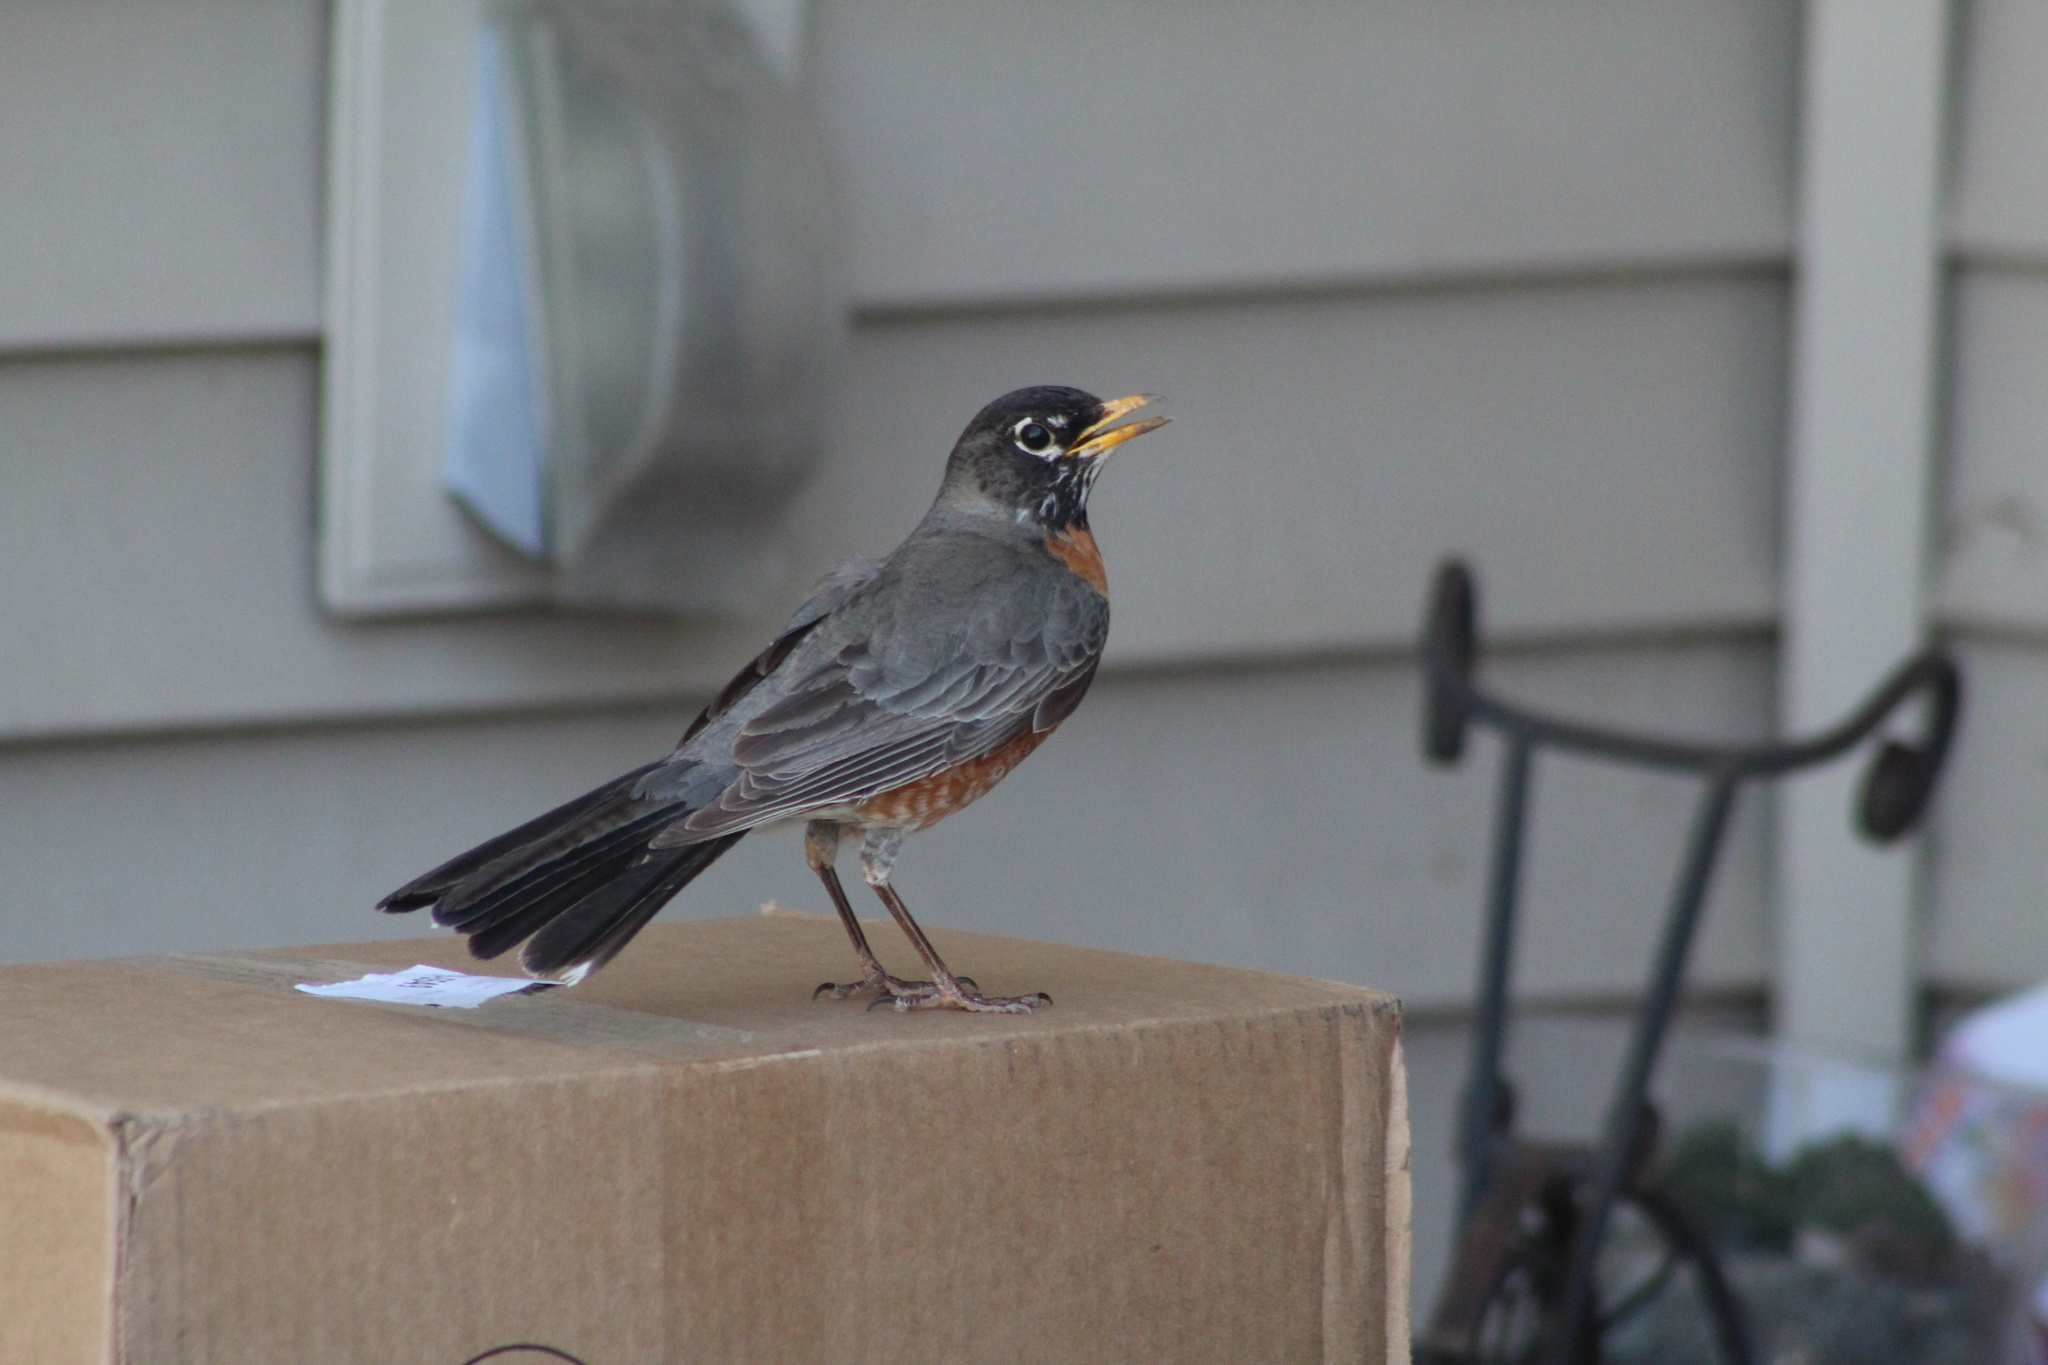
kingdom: Animalia
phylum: Chordata
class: Aves
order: Passeriformes
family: Turdidae
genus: Turdus
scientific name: Turdus migratorius
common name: American robin
